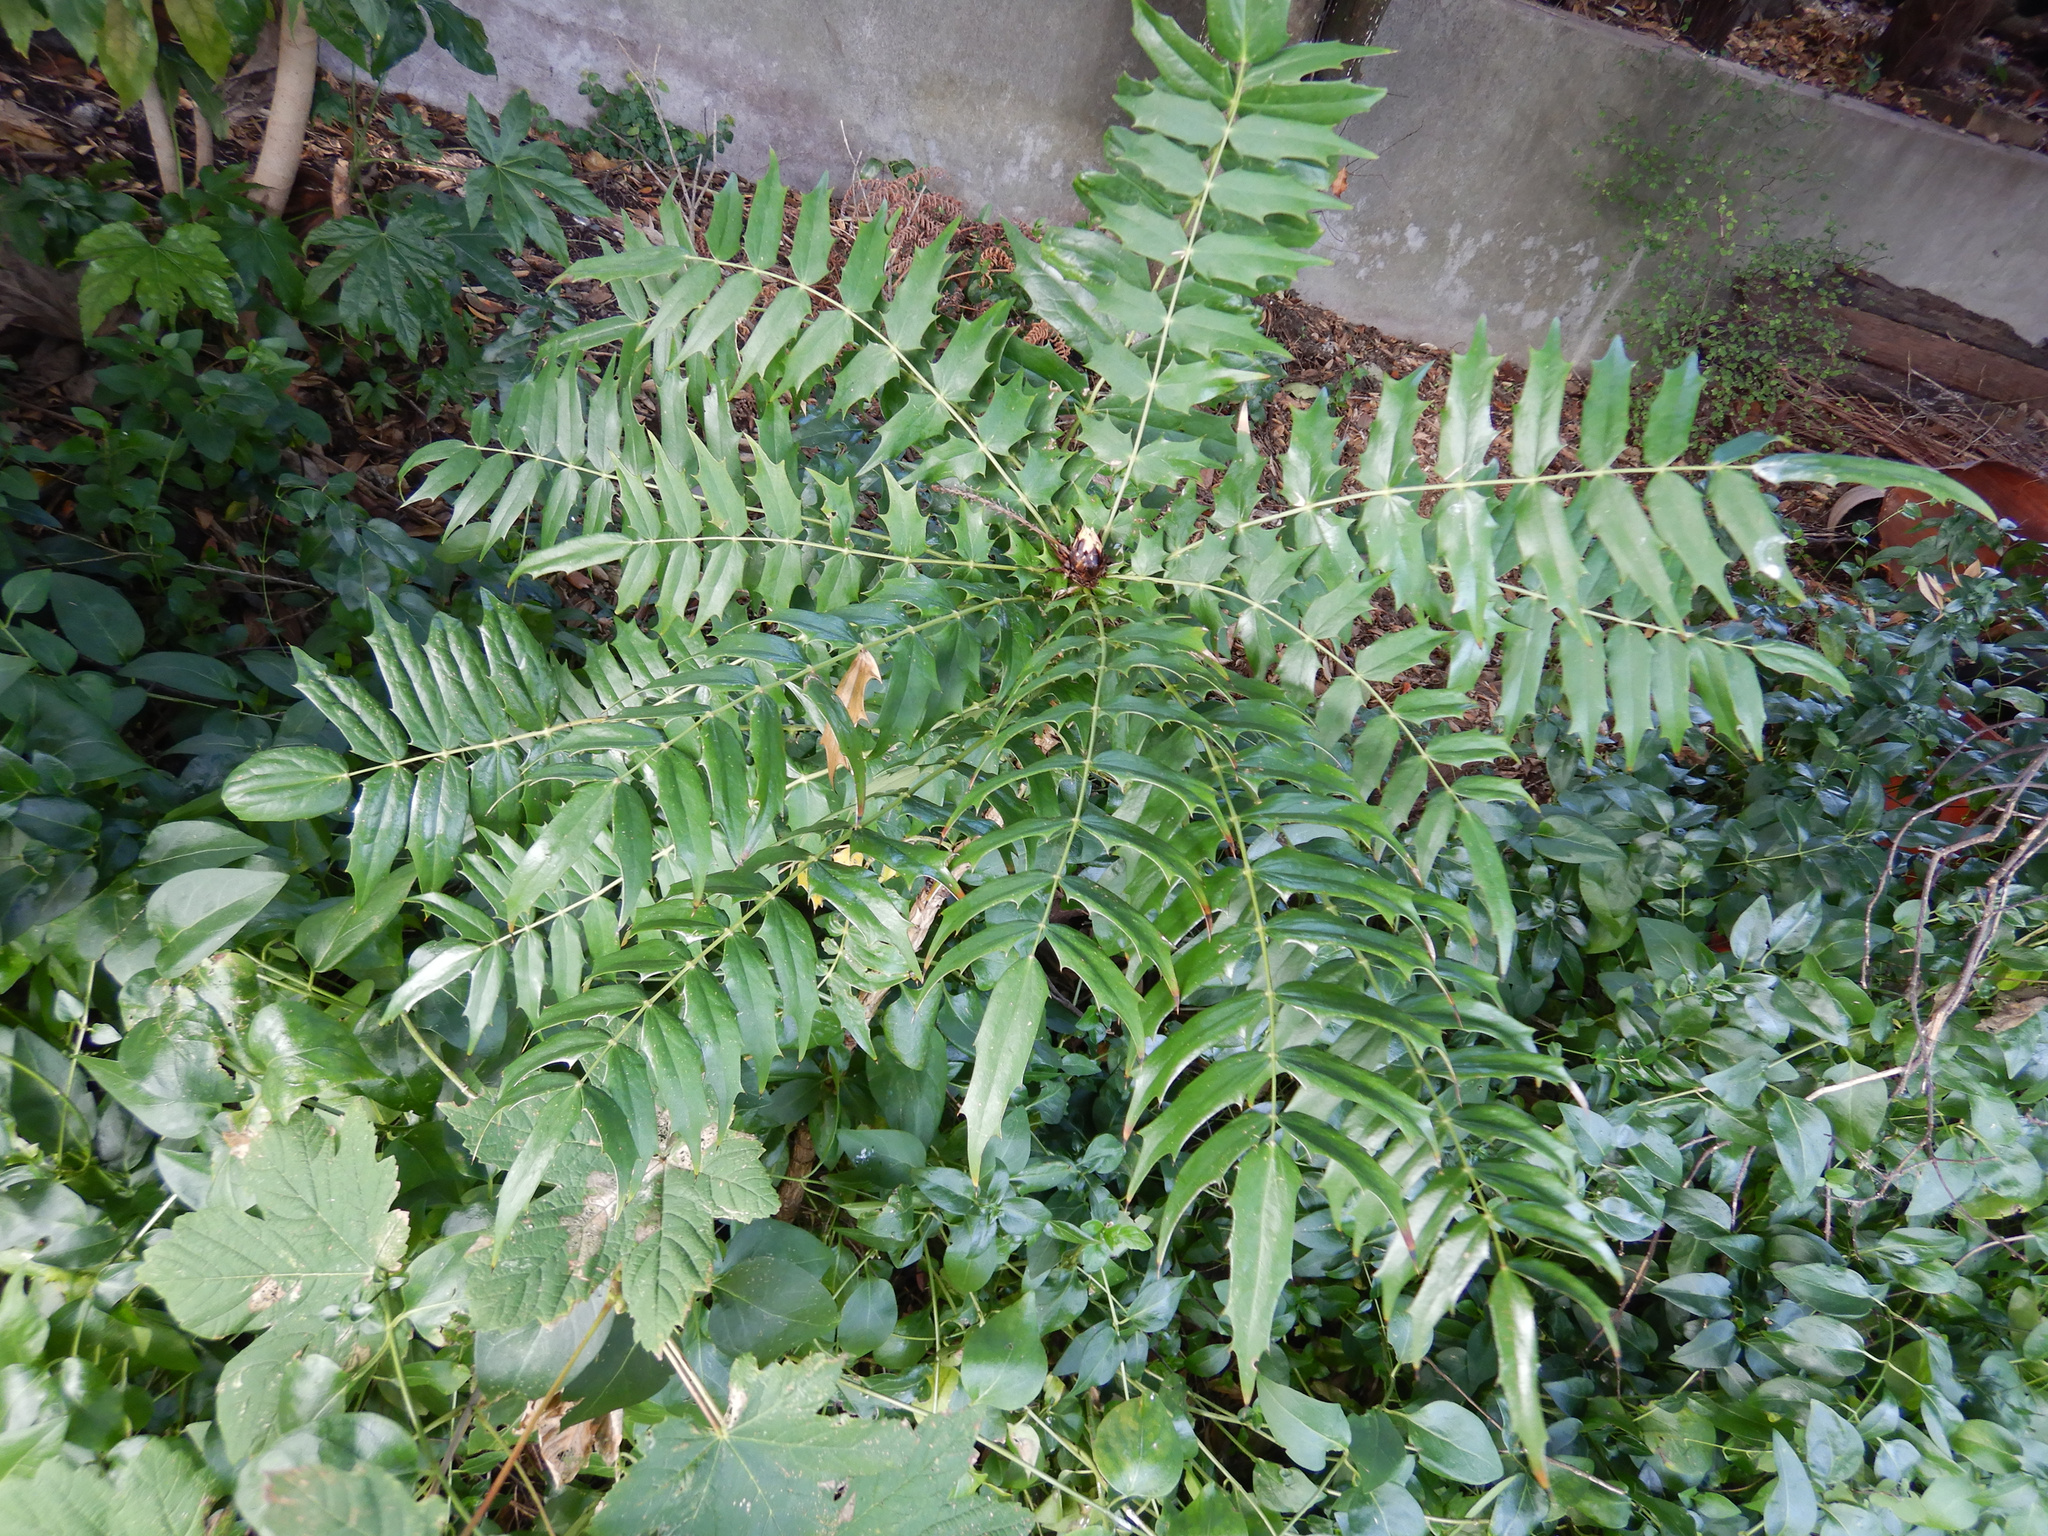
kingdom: Plantae
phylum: Tracheophyta
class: Magnoliopsida
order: Ranunculales
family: Berberidaceae
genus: Mahonia
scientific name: Mahonia aquifolium
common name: Oregon-grape
